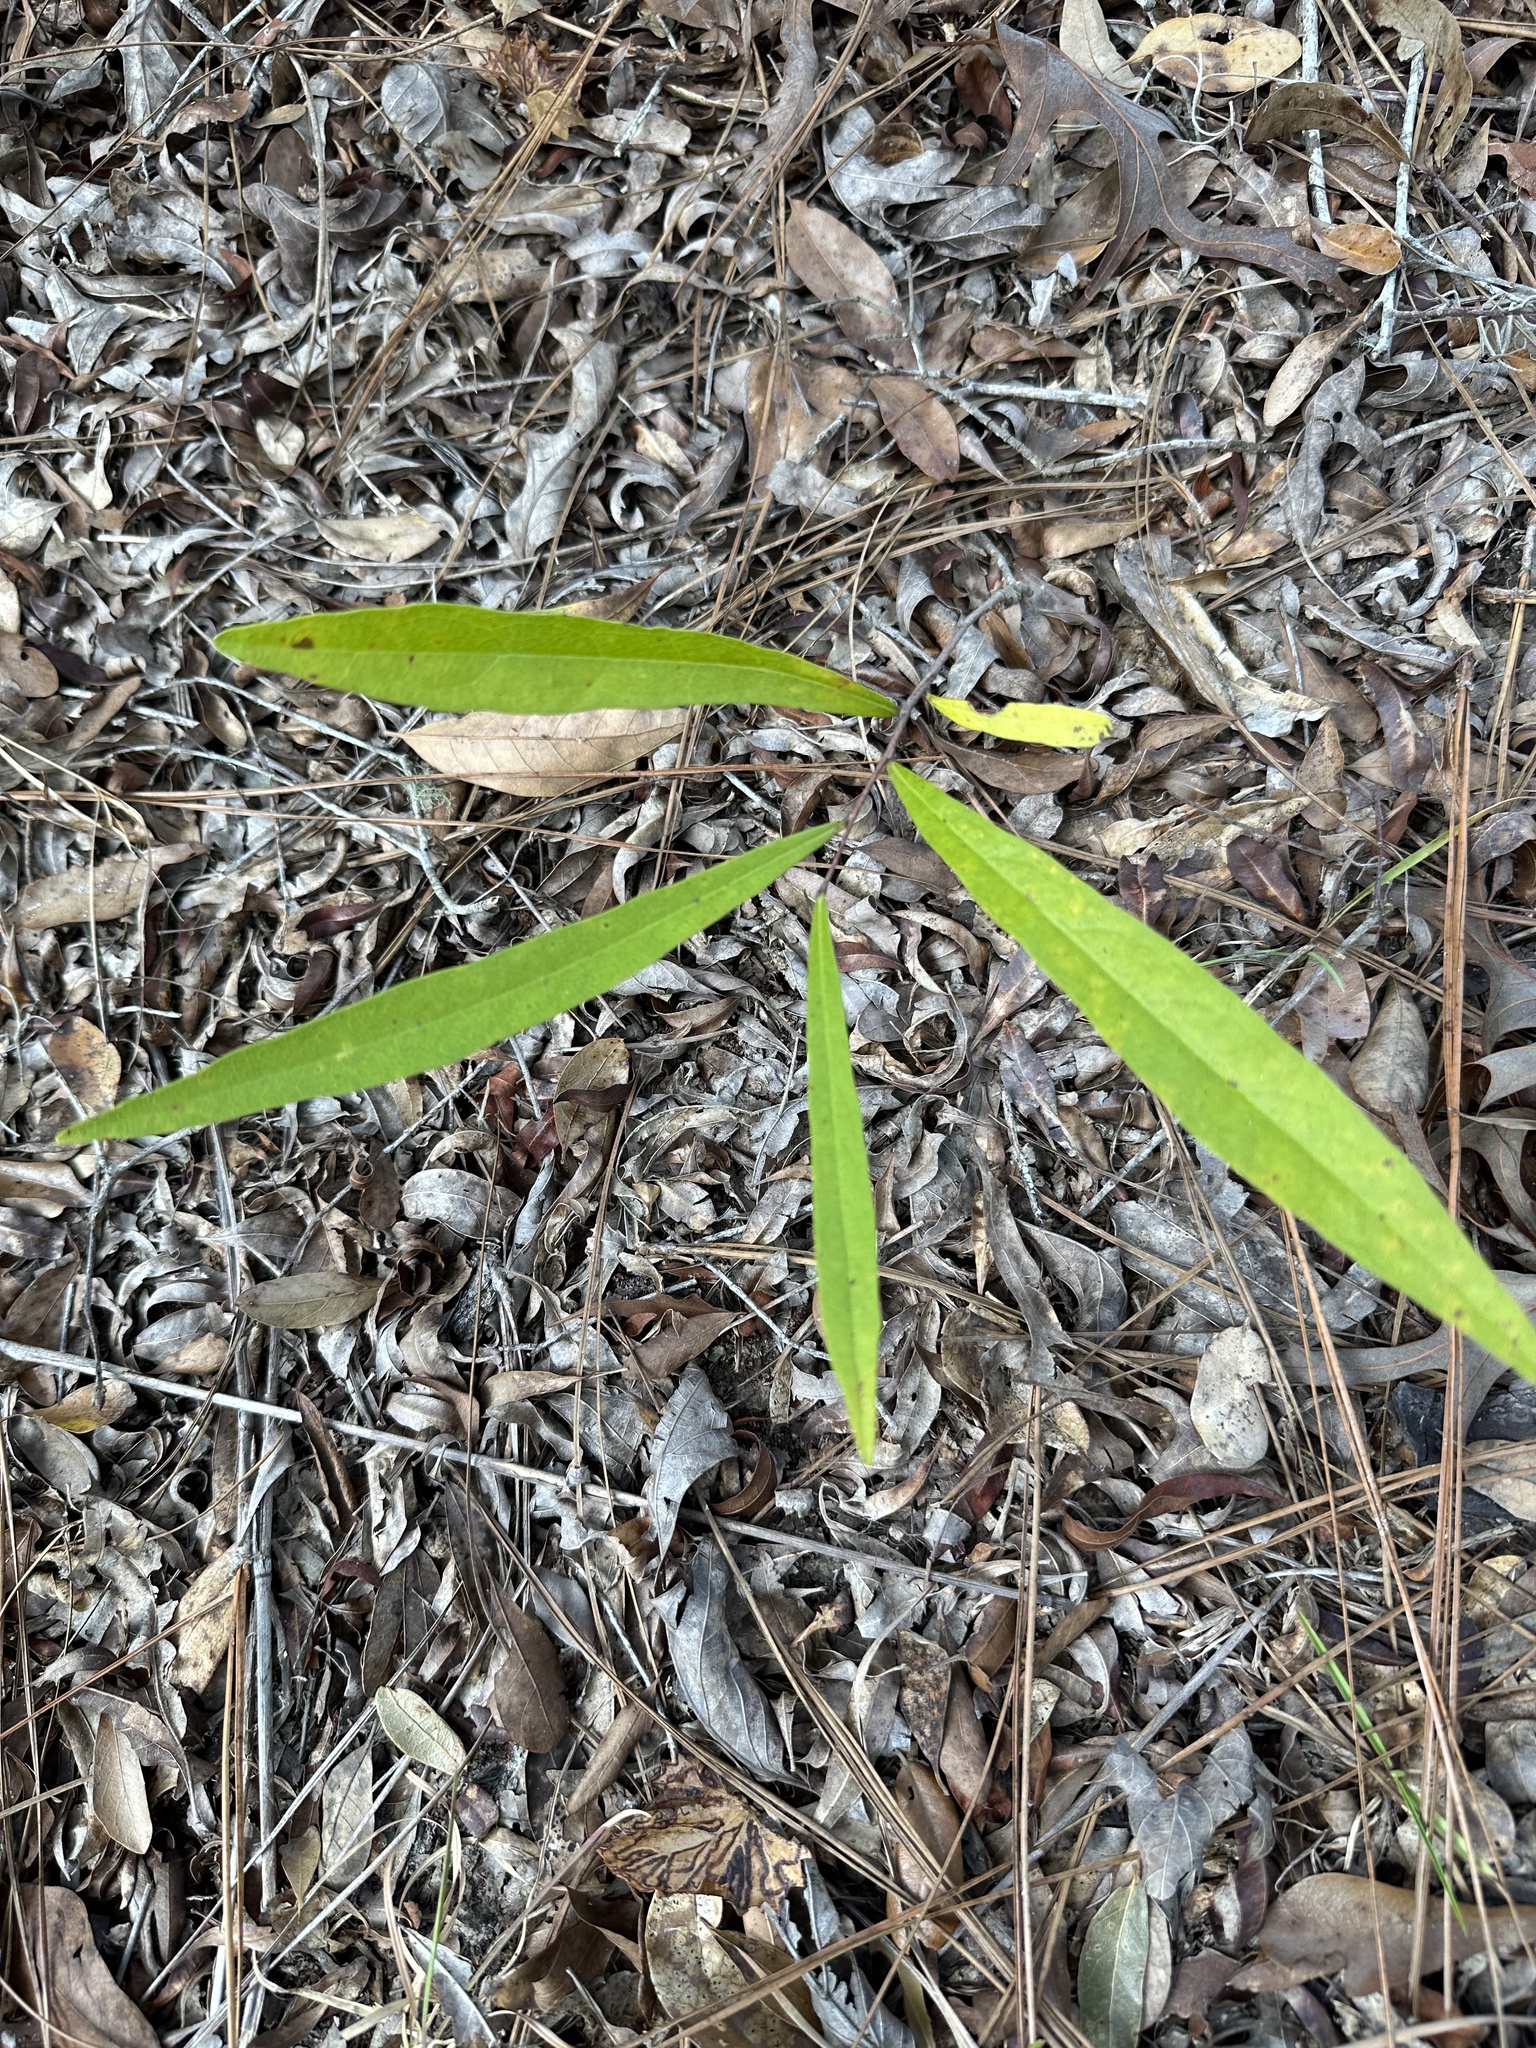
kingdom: Plantae
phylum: Tracheophyta
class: Magnoliopsida
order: Magnoliales
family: Annonaceae
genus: Asimina
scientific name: Asimina longifolia
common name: Polecatbush
